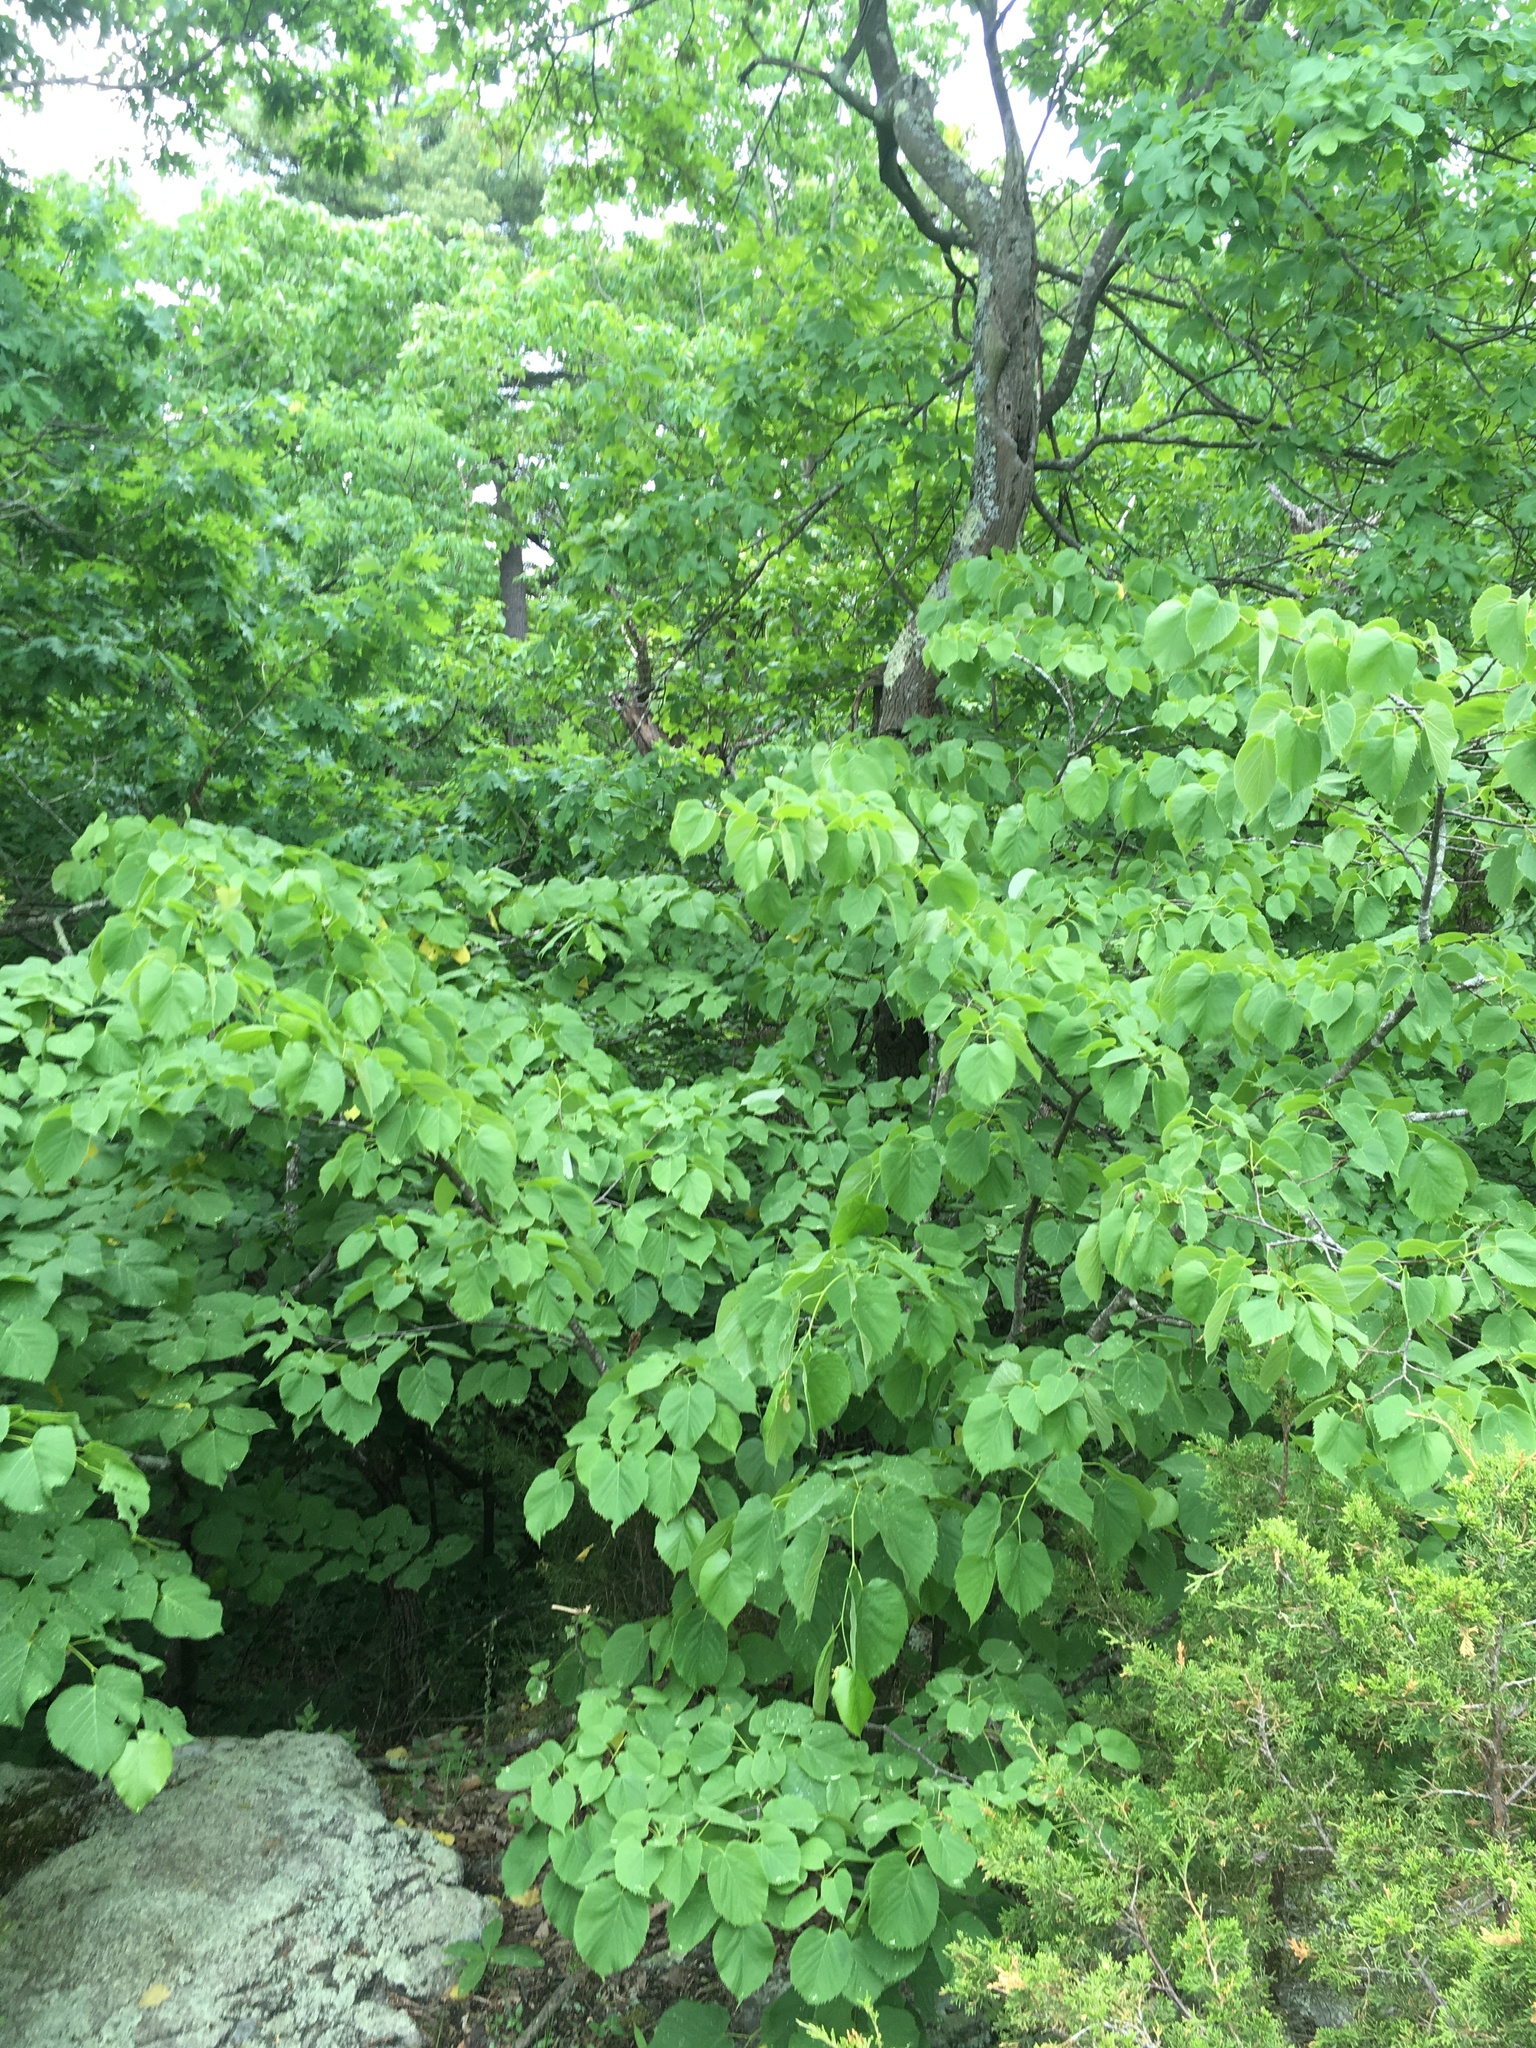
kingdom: Plantae
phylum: Tracheophyta
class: Magnoliopsida
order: Malvales
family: Malvaceae
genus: Tilia
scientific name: Tilia americana
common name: Basswood
